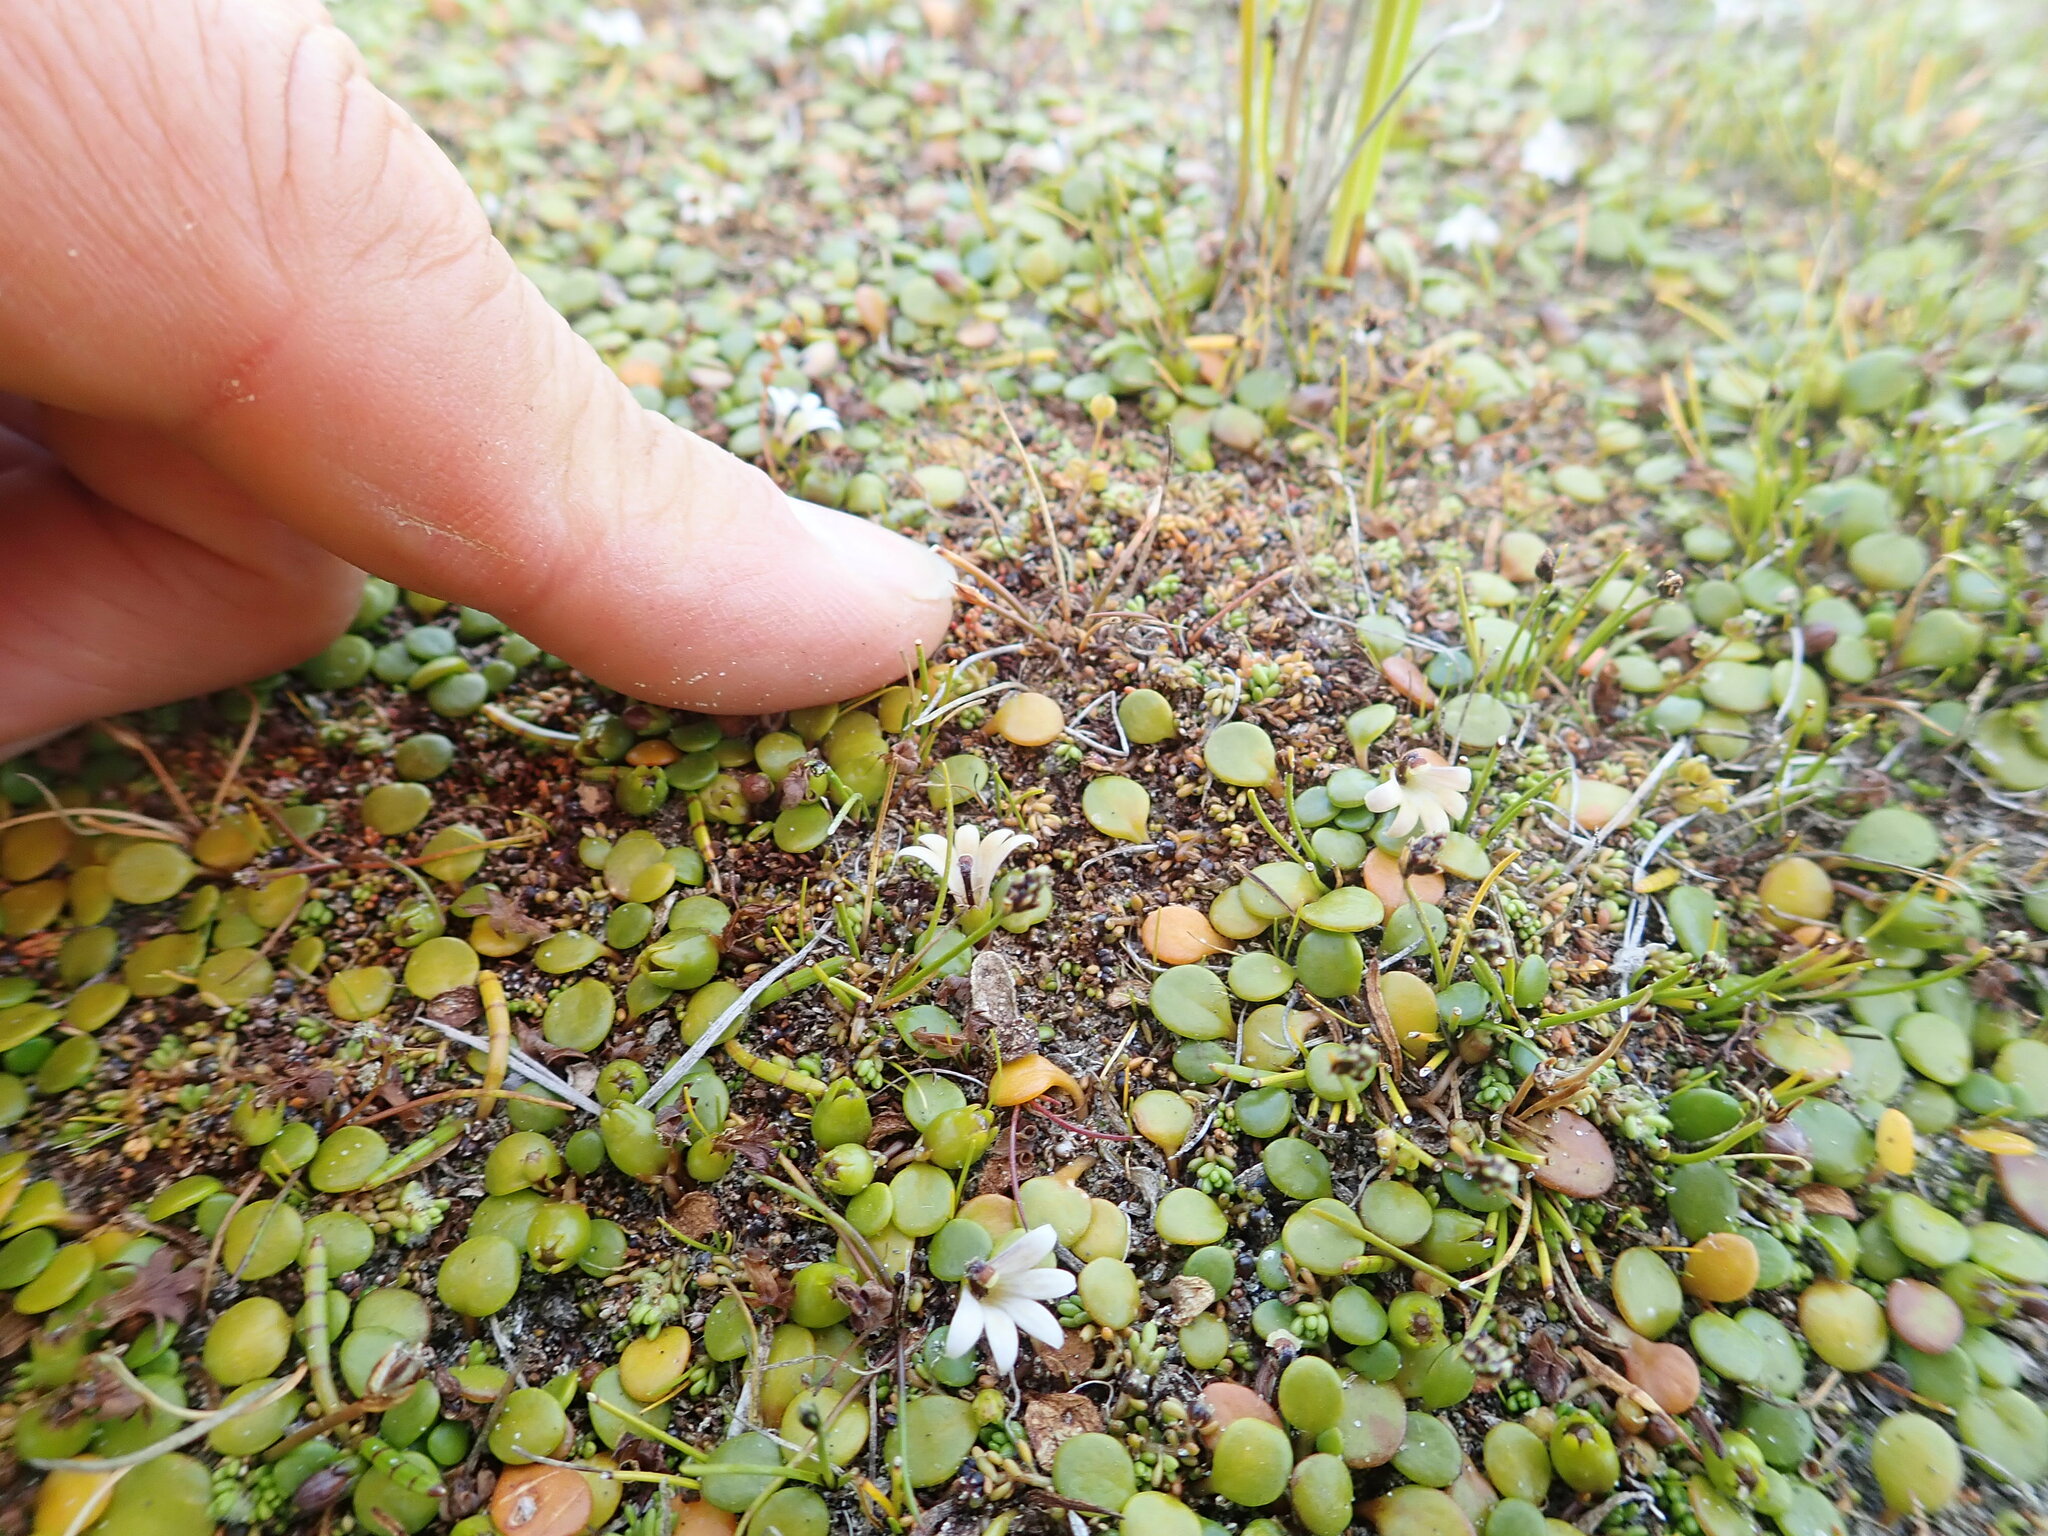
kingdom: Plantae
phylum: Tracheophyta
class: Magnoliopsida
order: Saxifragales
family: Haloragaceae
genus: Myriophyllum
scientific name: Myriophyllum votschii
